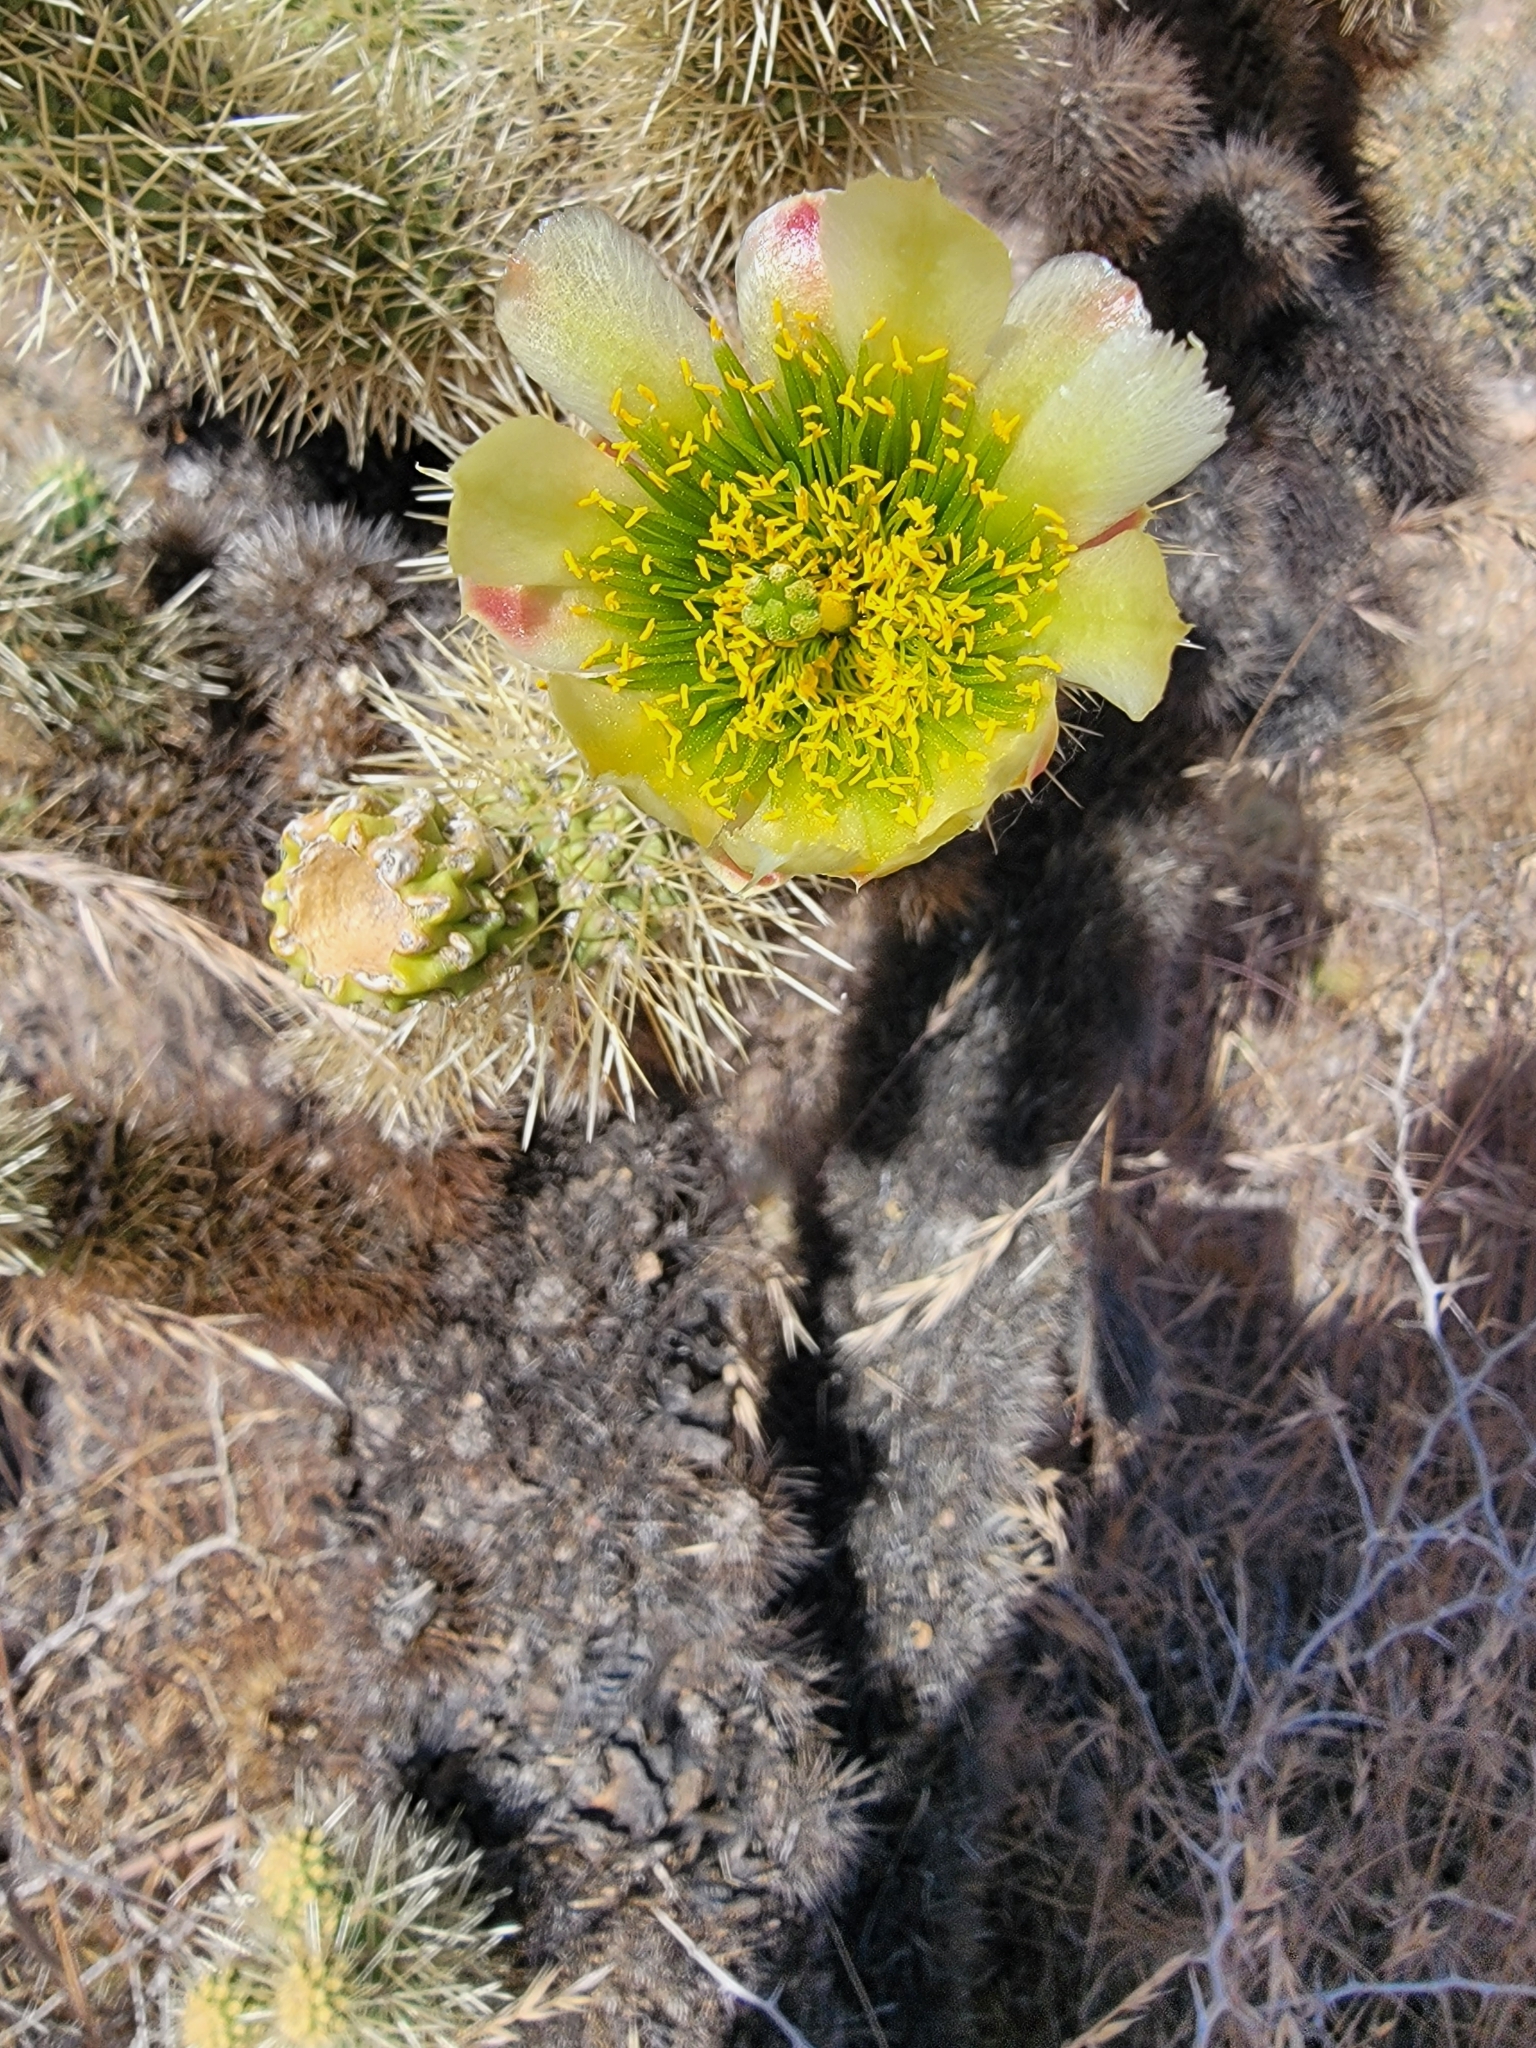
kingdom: Plantae
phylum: Tracheophyta
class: Magnoliopsida
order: Caryophyllales
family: Cactaceae
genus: Cylindropuntia
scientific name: Cylindropuntia fosbergii
